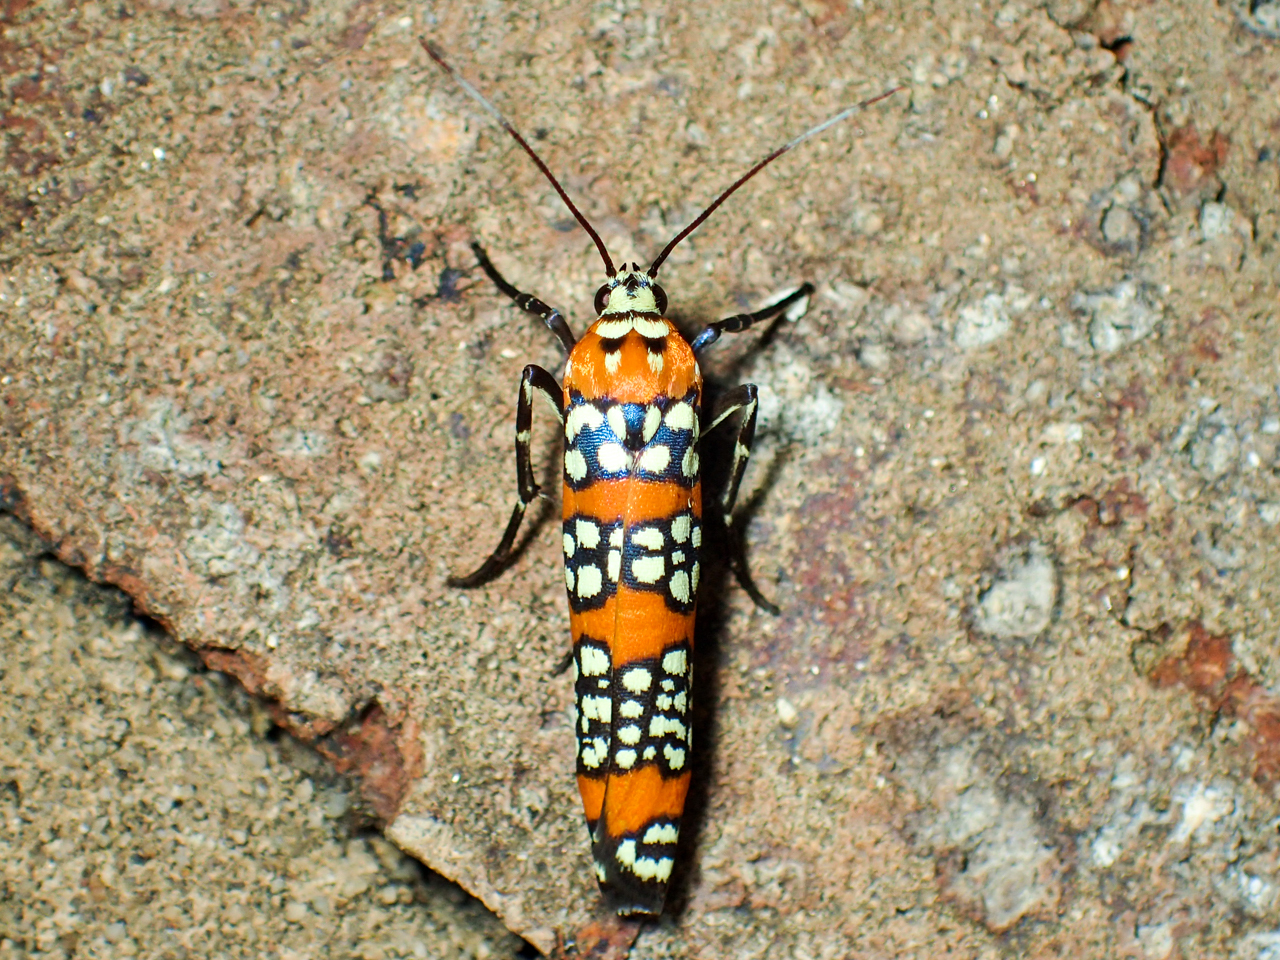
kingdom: Animalia
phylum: Arthropoda
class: Insecta
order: Lepidoptera
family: Attevidae
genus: Atteva
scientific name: Atteva punctella
